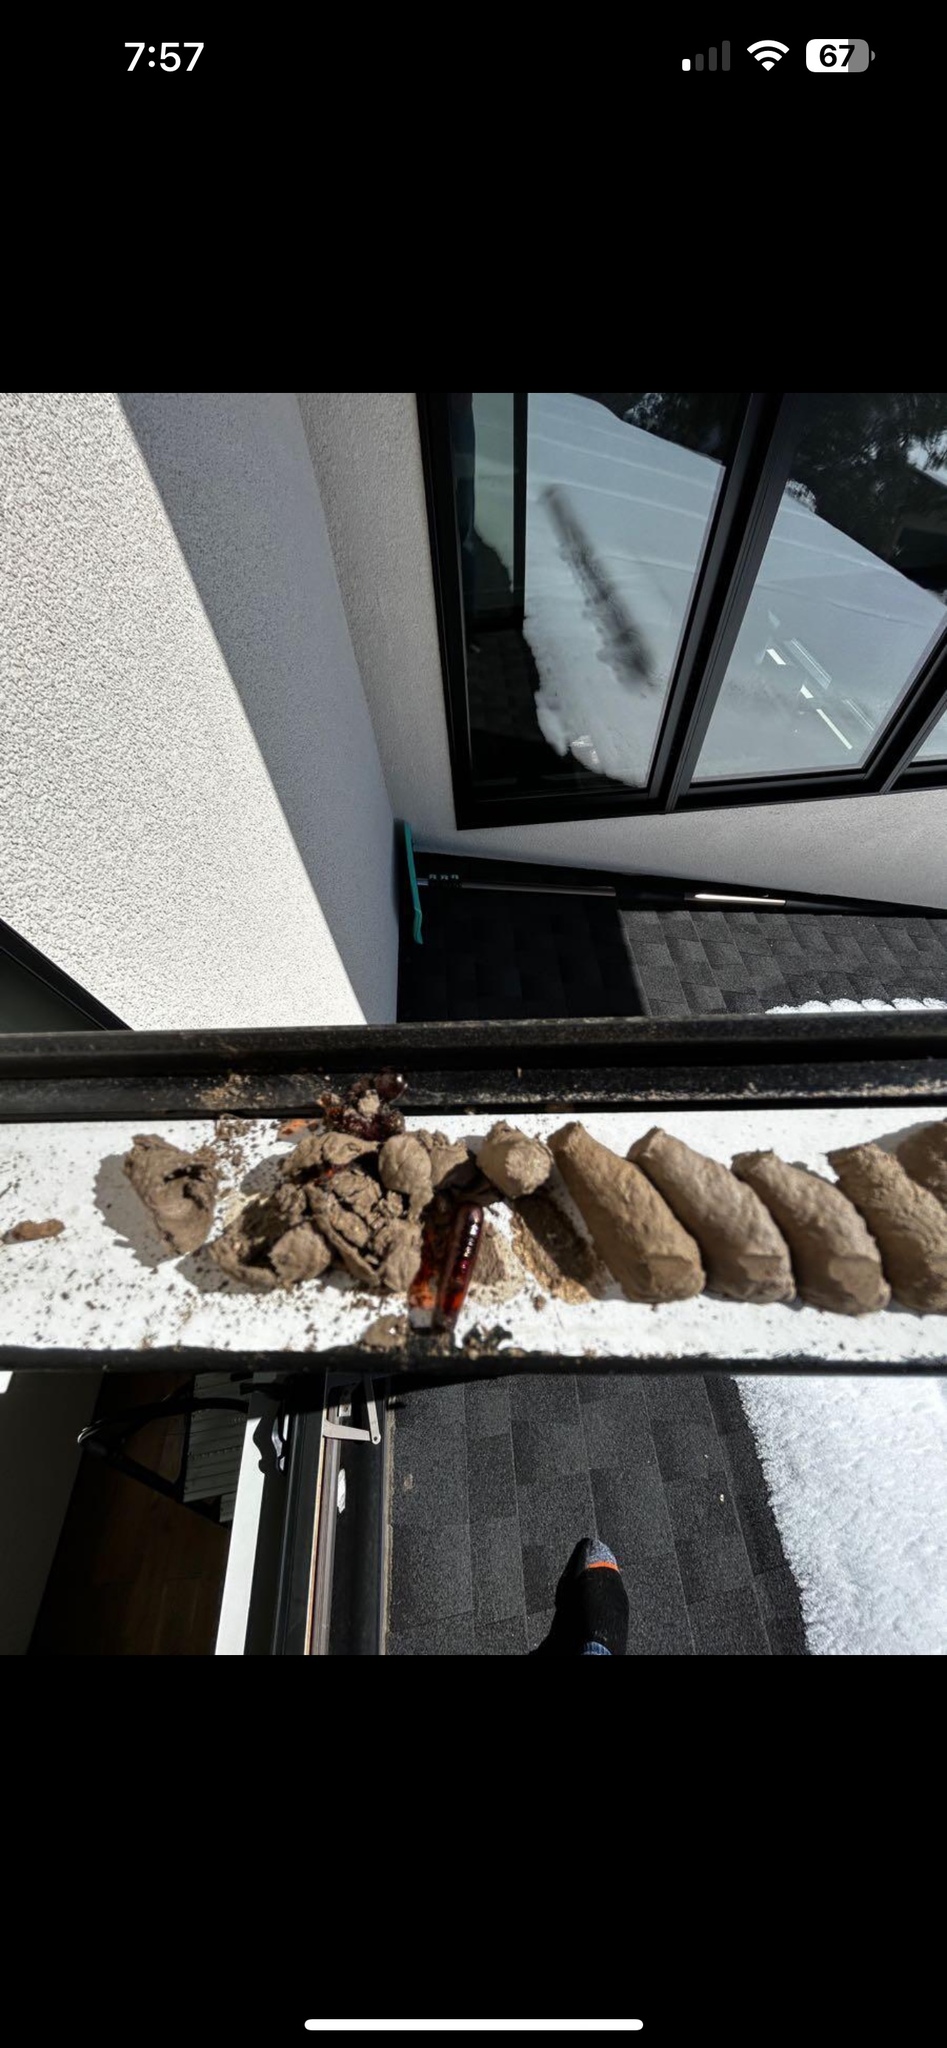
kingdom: Animalia
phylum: Arthropoda
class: Insecta
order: Hymenoptera
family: Sphecidae
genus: Sceliphron
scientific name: Sceliphron curvatum
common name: Pèlopèe
